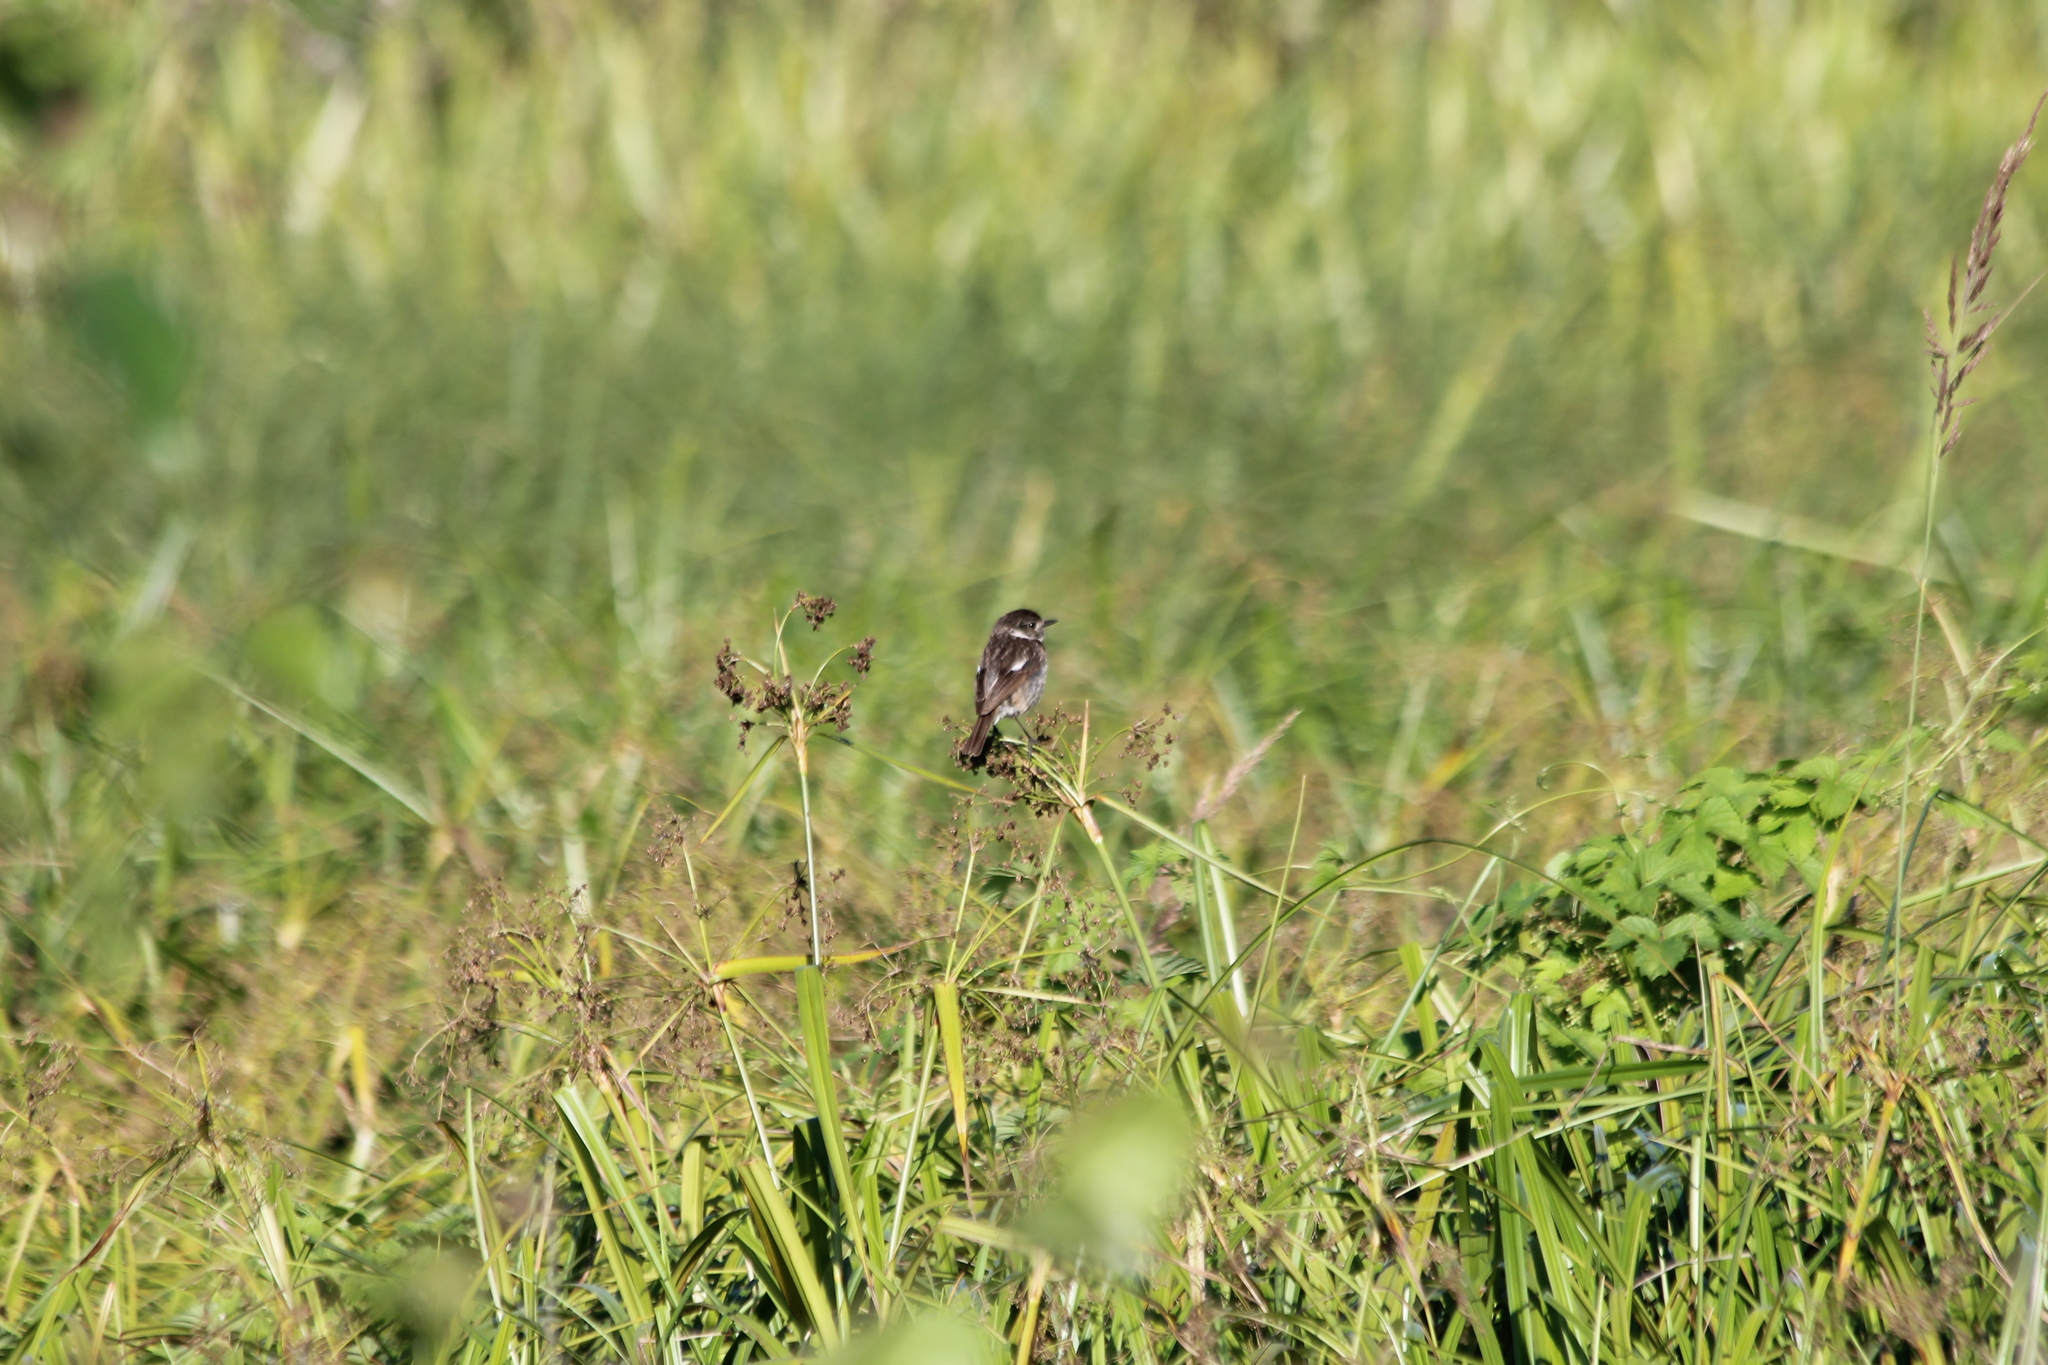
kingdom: Animalia
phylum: Chordata
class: Aves
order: Passeriformes
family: Muscicapidae
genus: Saxicola
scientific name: Saxicola rubicola
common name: European stonechat
